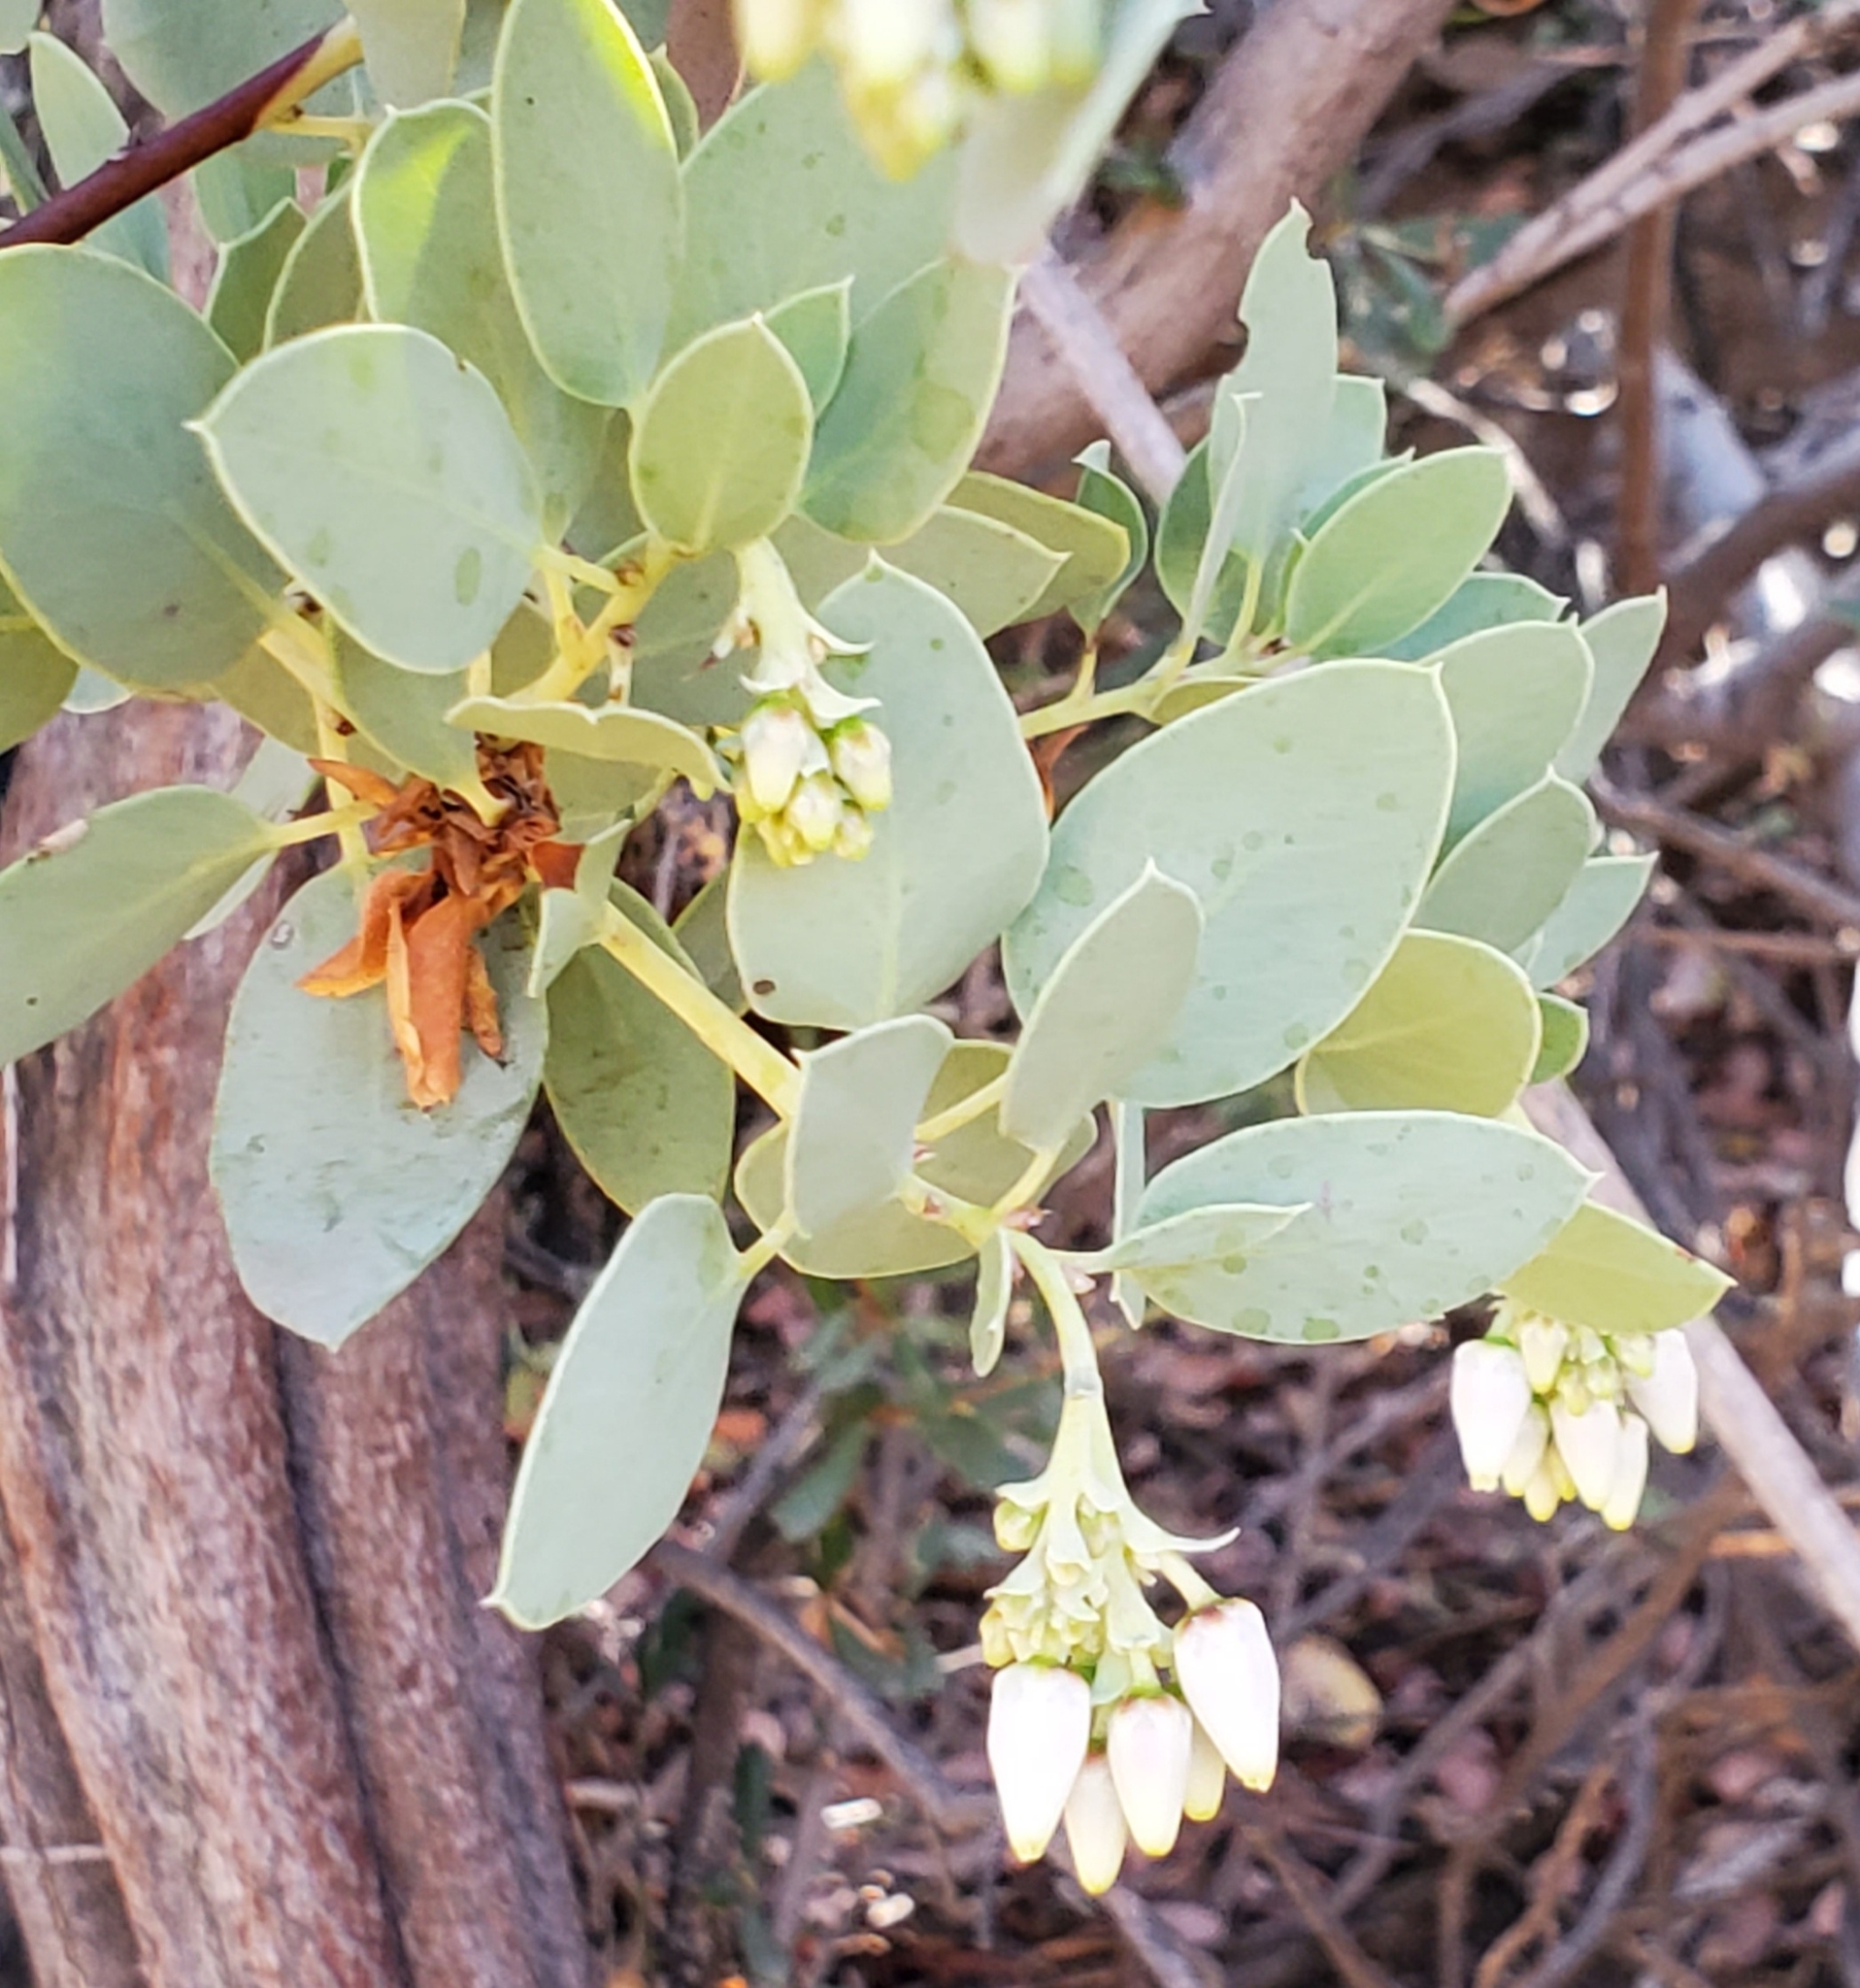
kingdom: Plantae
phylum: Tracheophyta
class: Magnoliopsida
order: Ericales
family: Ericaceae
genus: Arctostaphylos
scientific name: Arctostaphylos glauca
